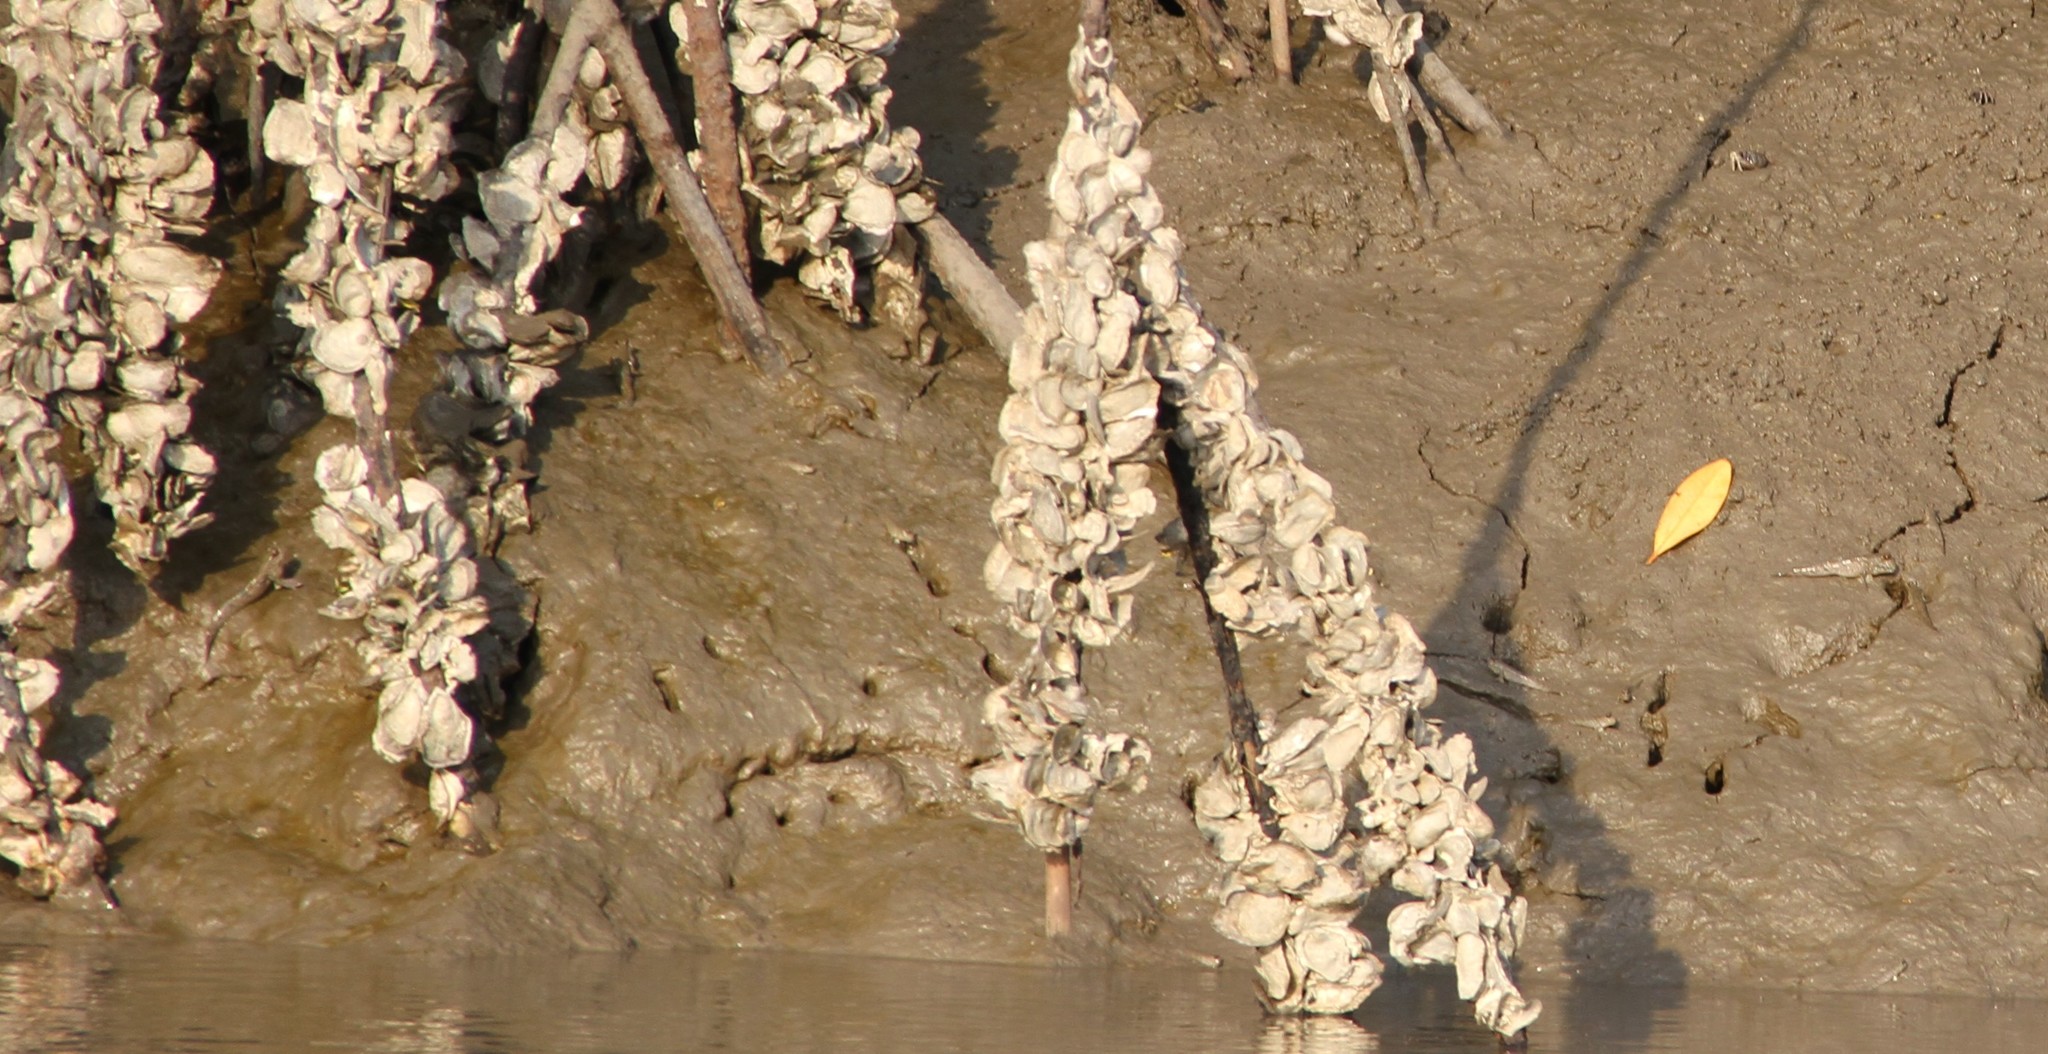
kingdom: Animalia
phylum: Chordata
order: Perciformes
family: Gobiidae
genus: Periophthalmus
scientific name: Periophthalmus barbarus
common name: Atlantic mudskipper
